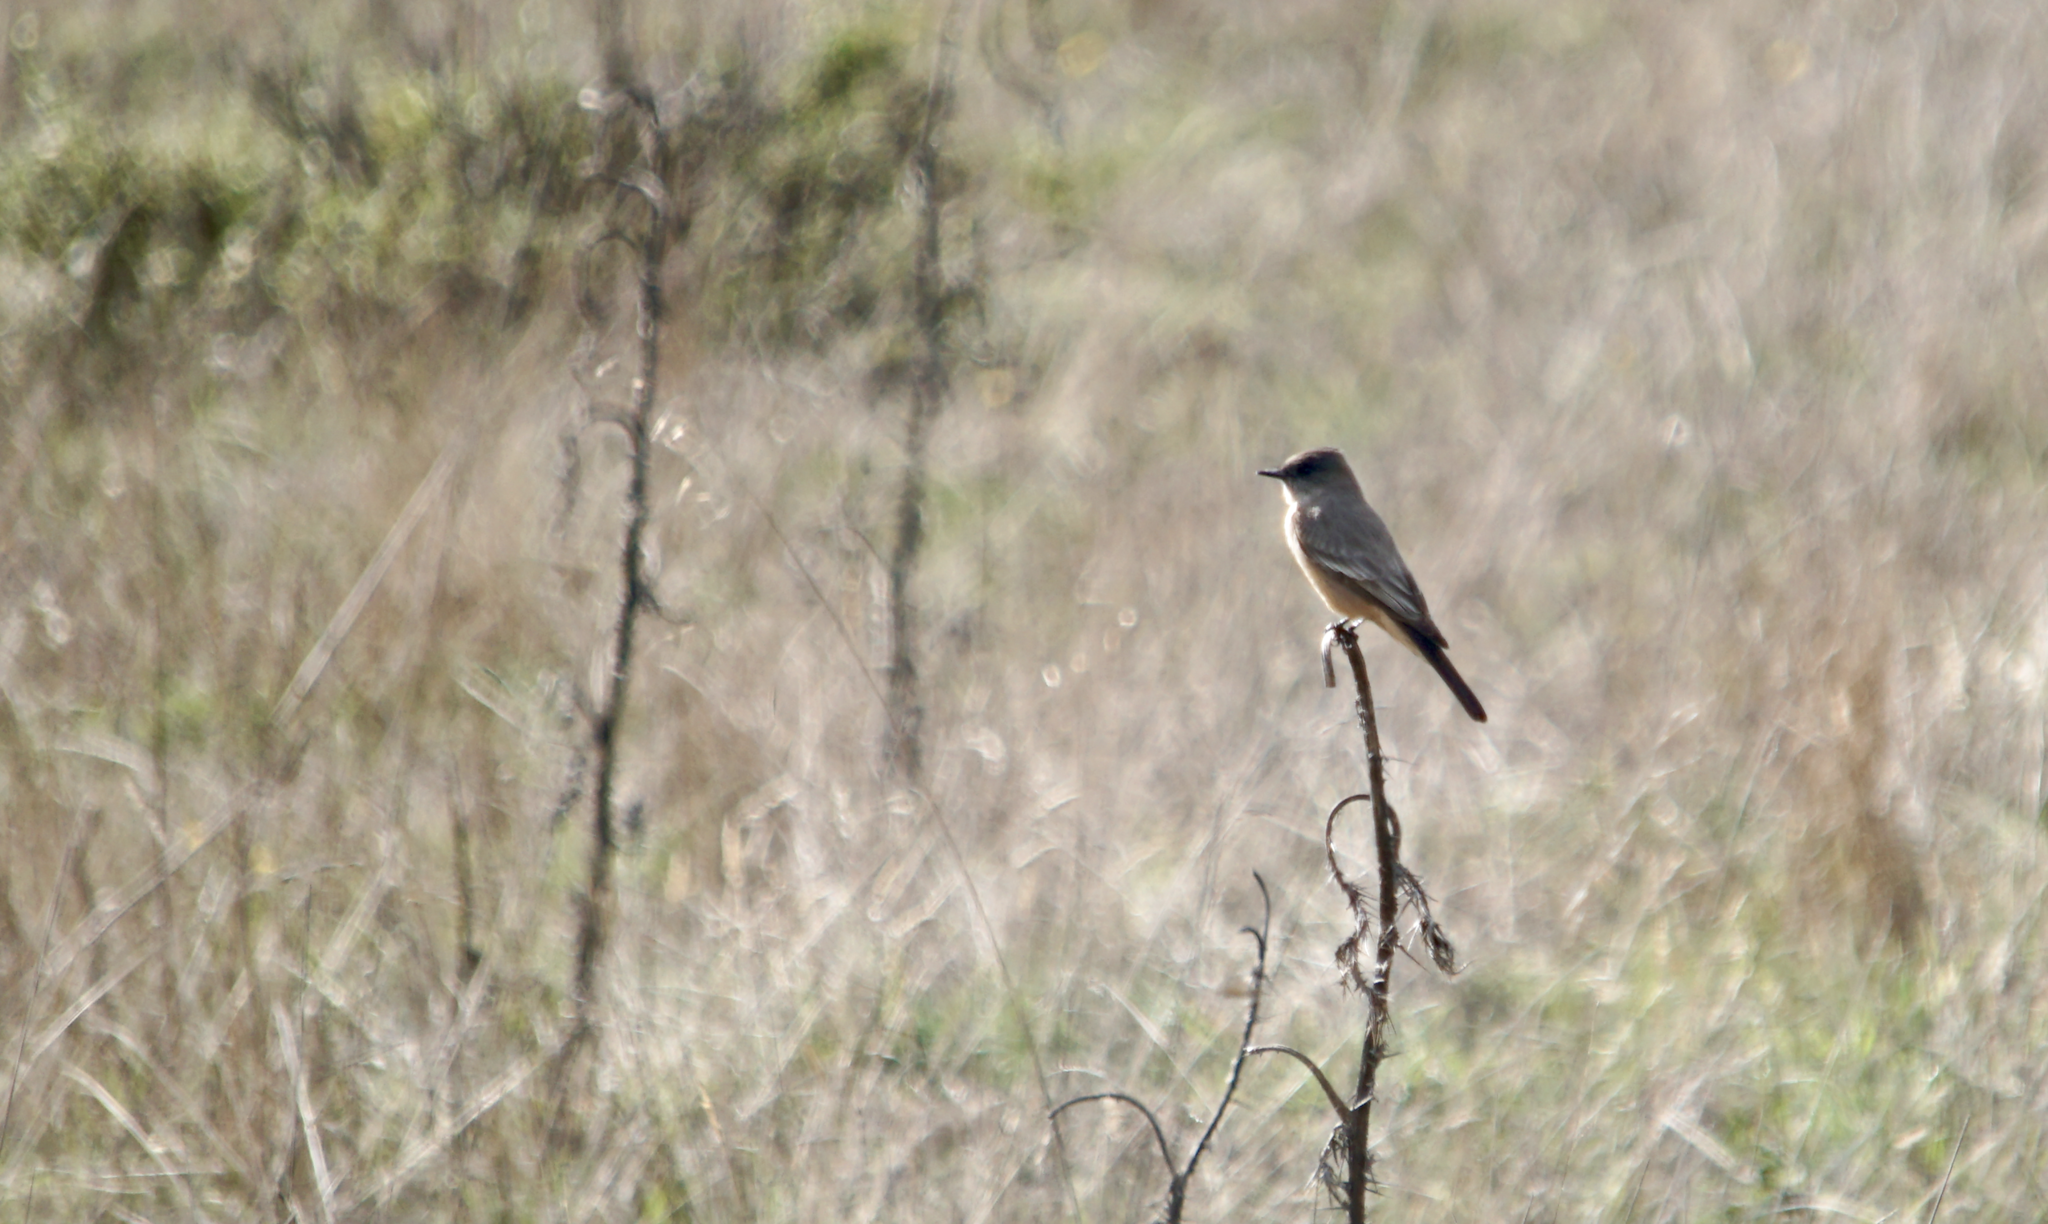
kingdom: Animalia
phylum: Chordata
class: Aves
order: Passeriformes
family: Tyrannidae
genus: Sayornis
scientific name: Sayornis saya
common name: Say's phoebe
